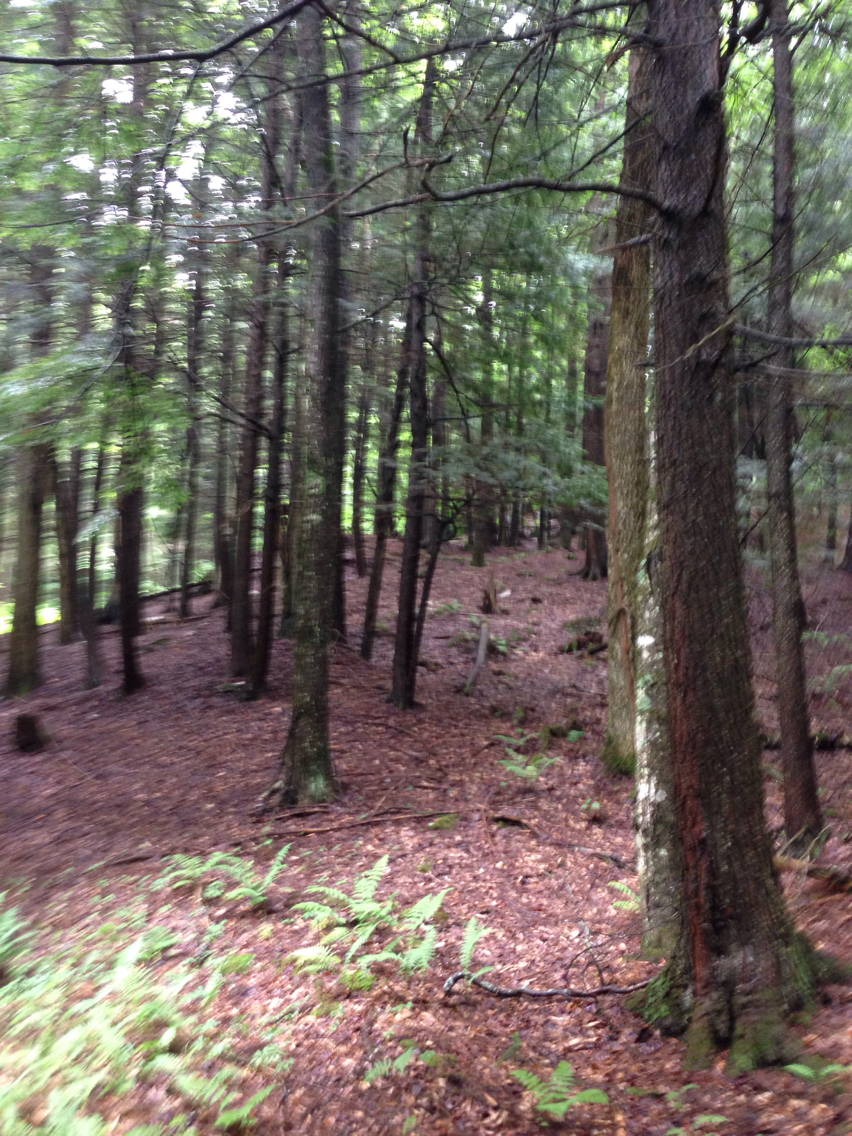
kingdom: Plantae
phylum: Tracheophyta
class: Pinopsida
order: Pinales
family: Pinaceae
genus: Tsuga
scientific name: Tsuga canadensis
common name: Eastern hemlock
